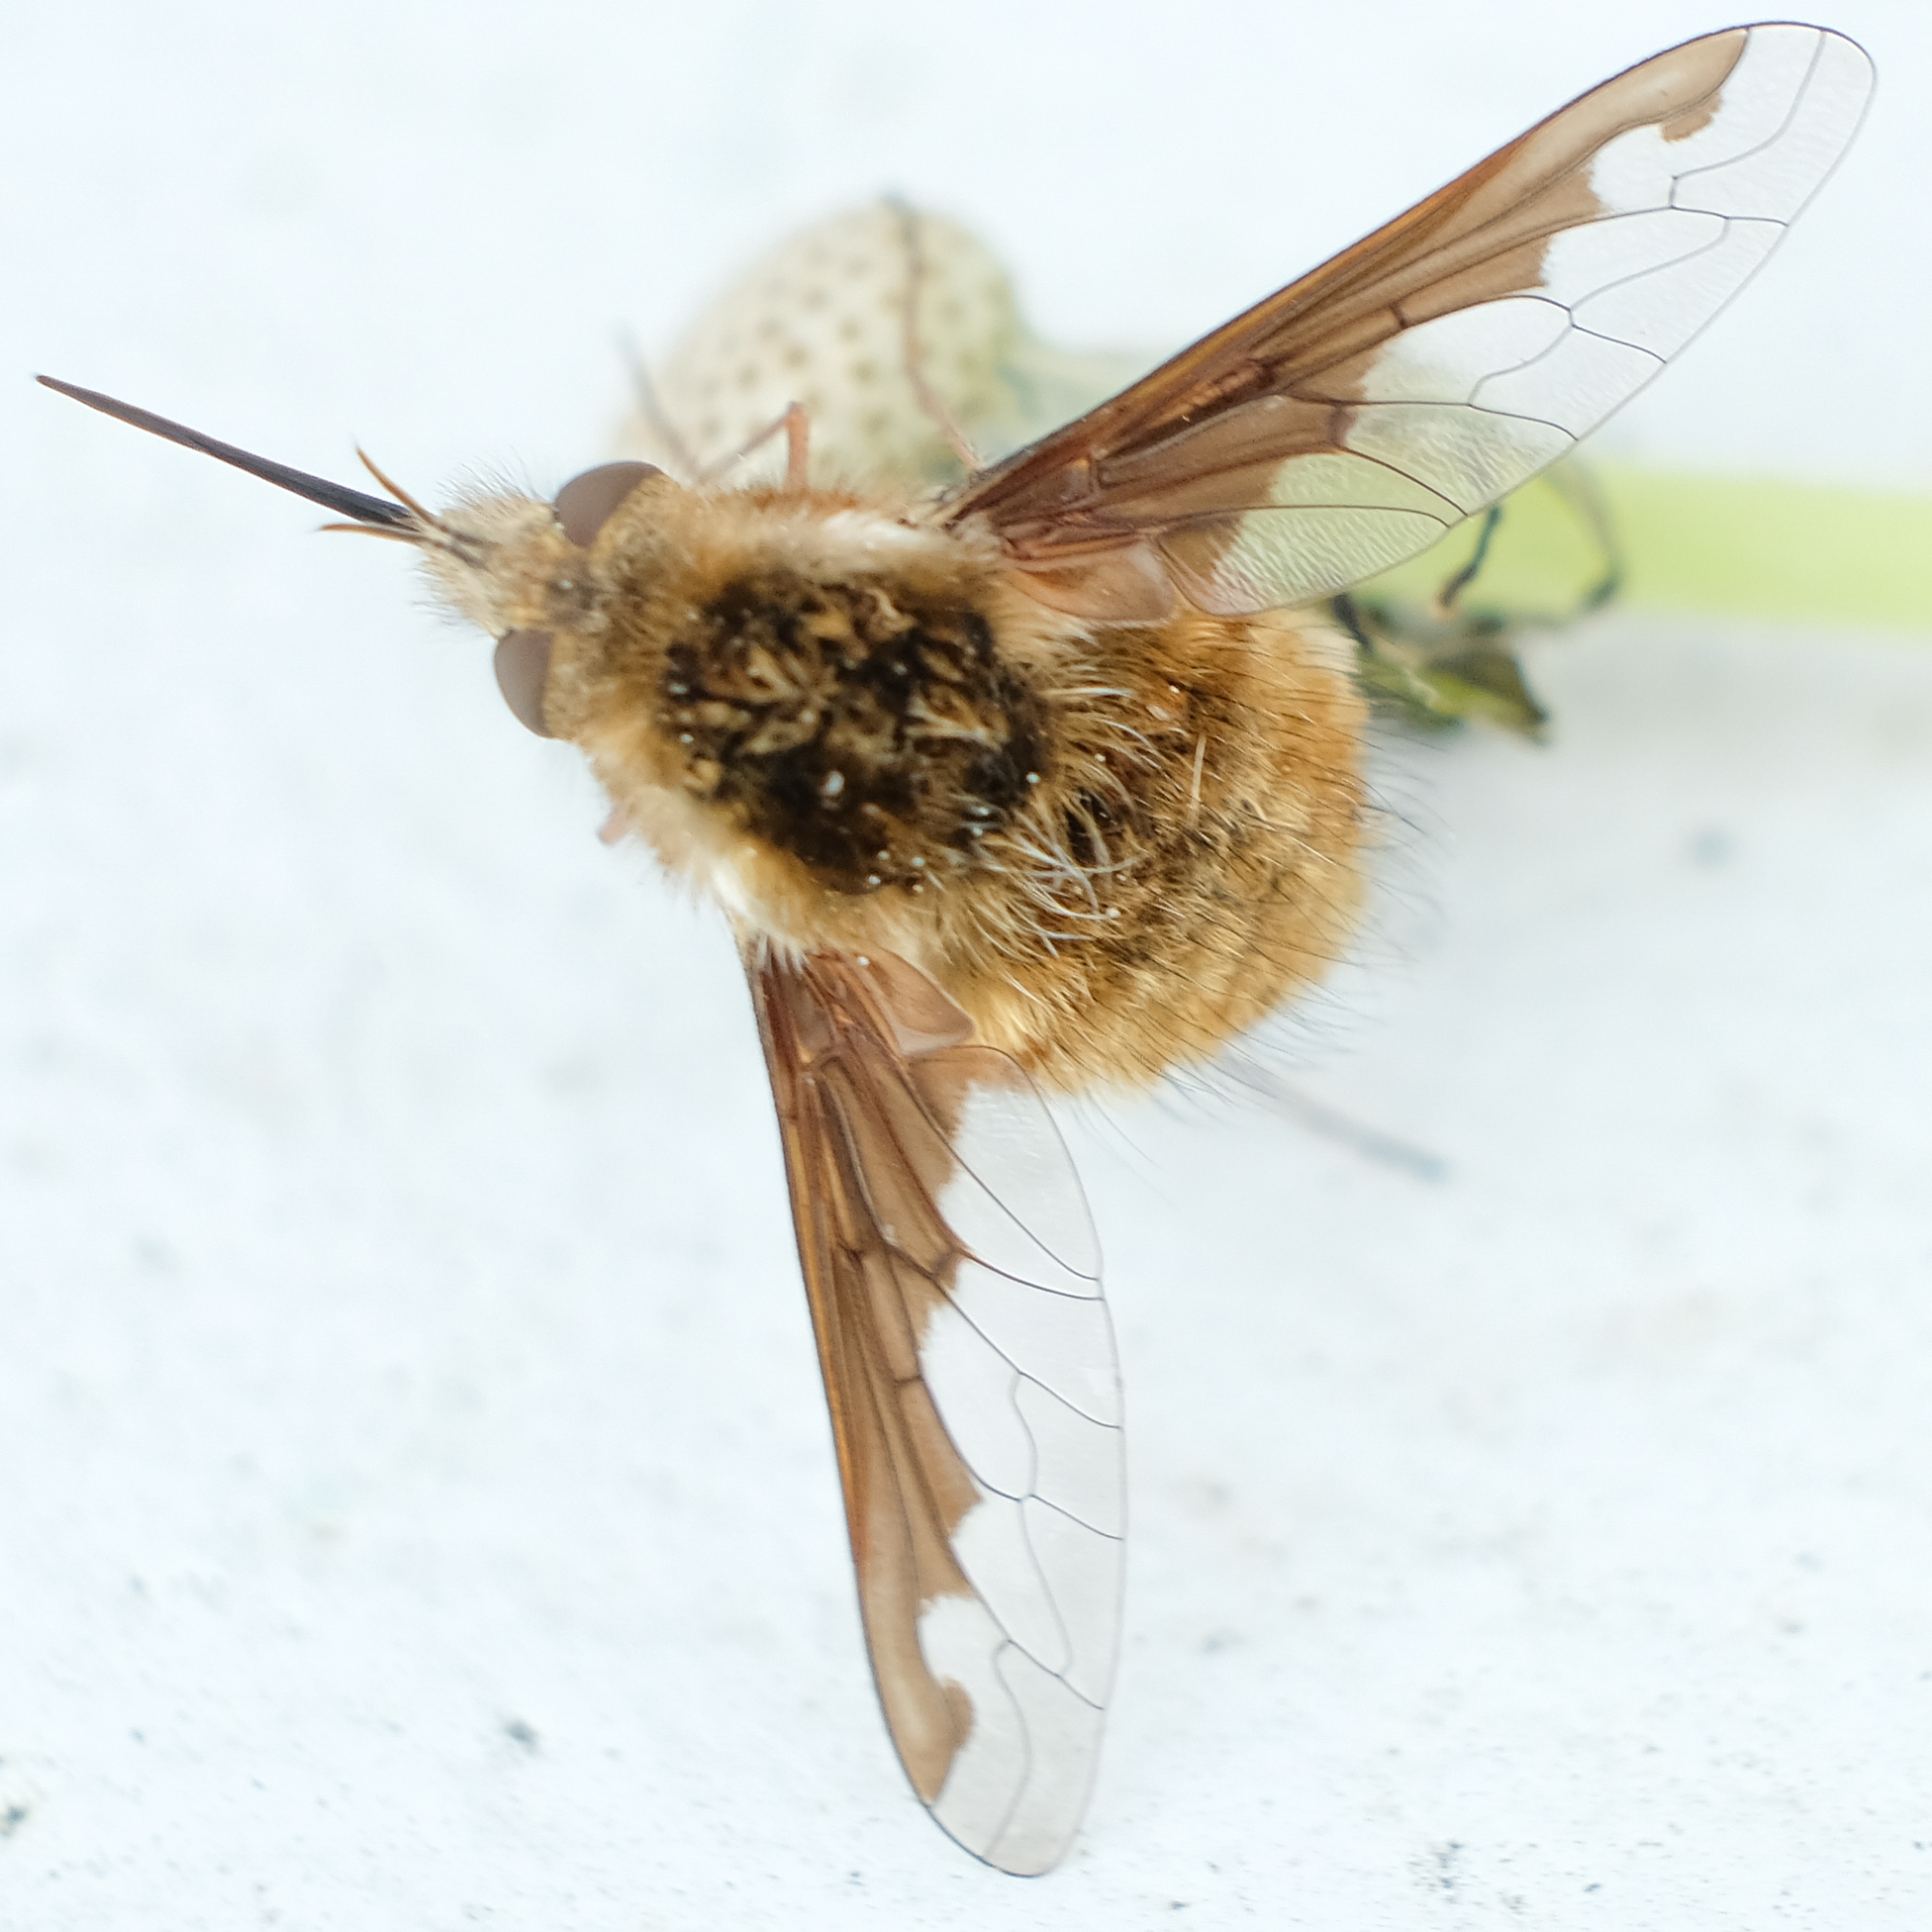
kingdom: Animalia
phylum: Arthropoda
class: Insecta
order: Diptera
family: Bombyliidae
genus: Bombylius
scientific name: Bombylius major
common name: Bee fly
